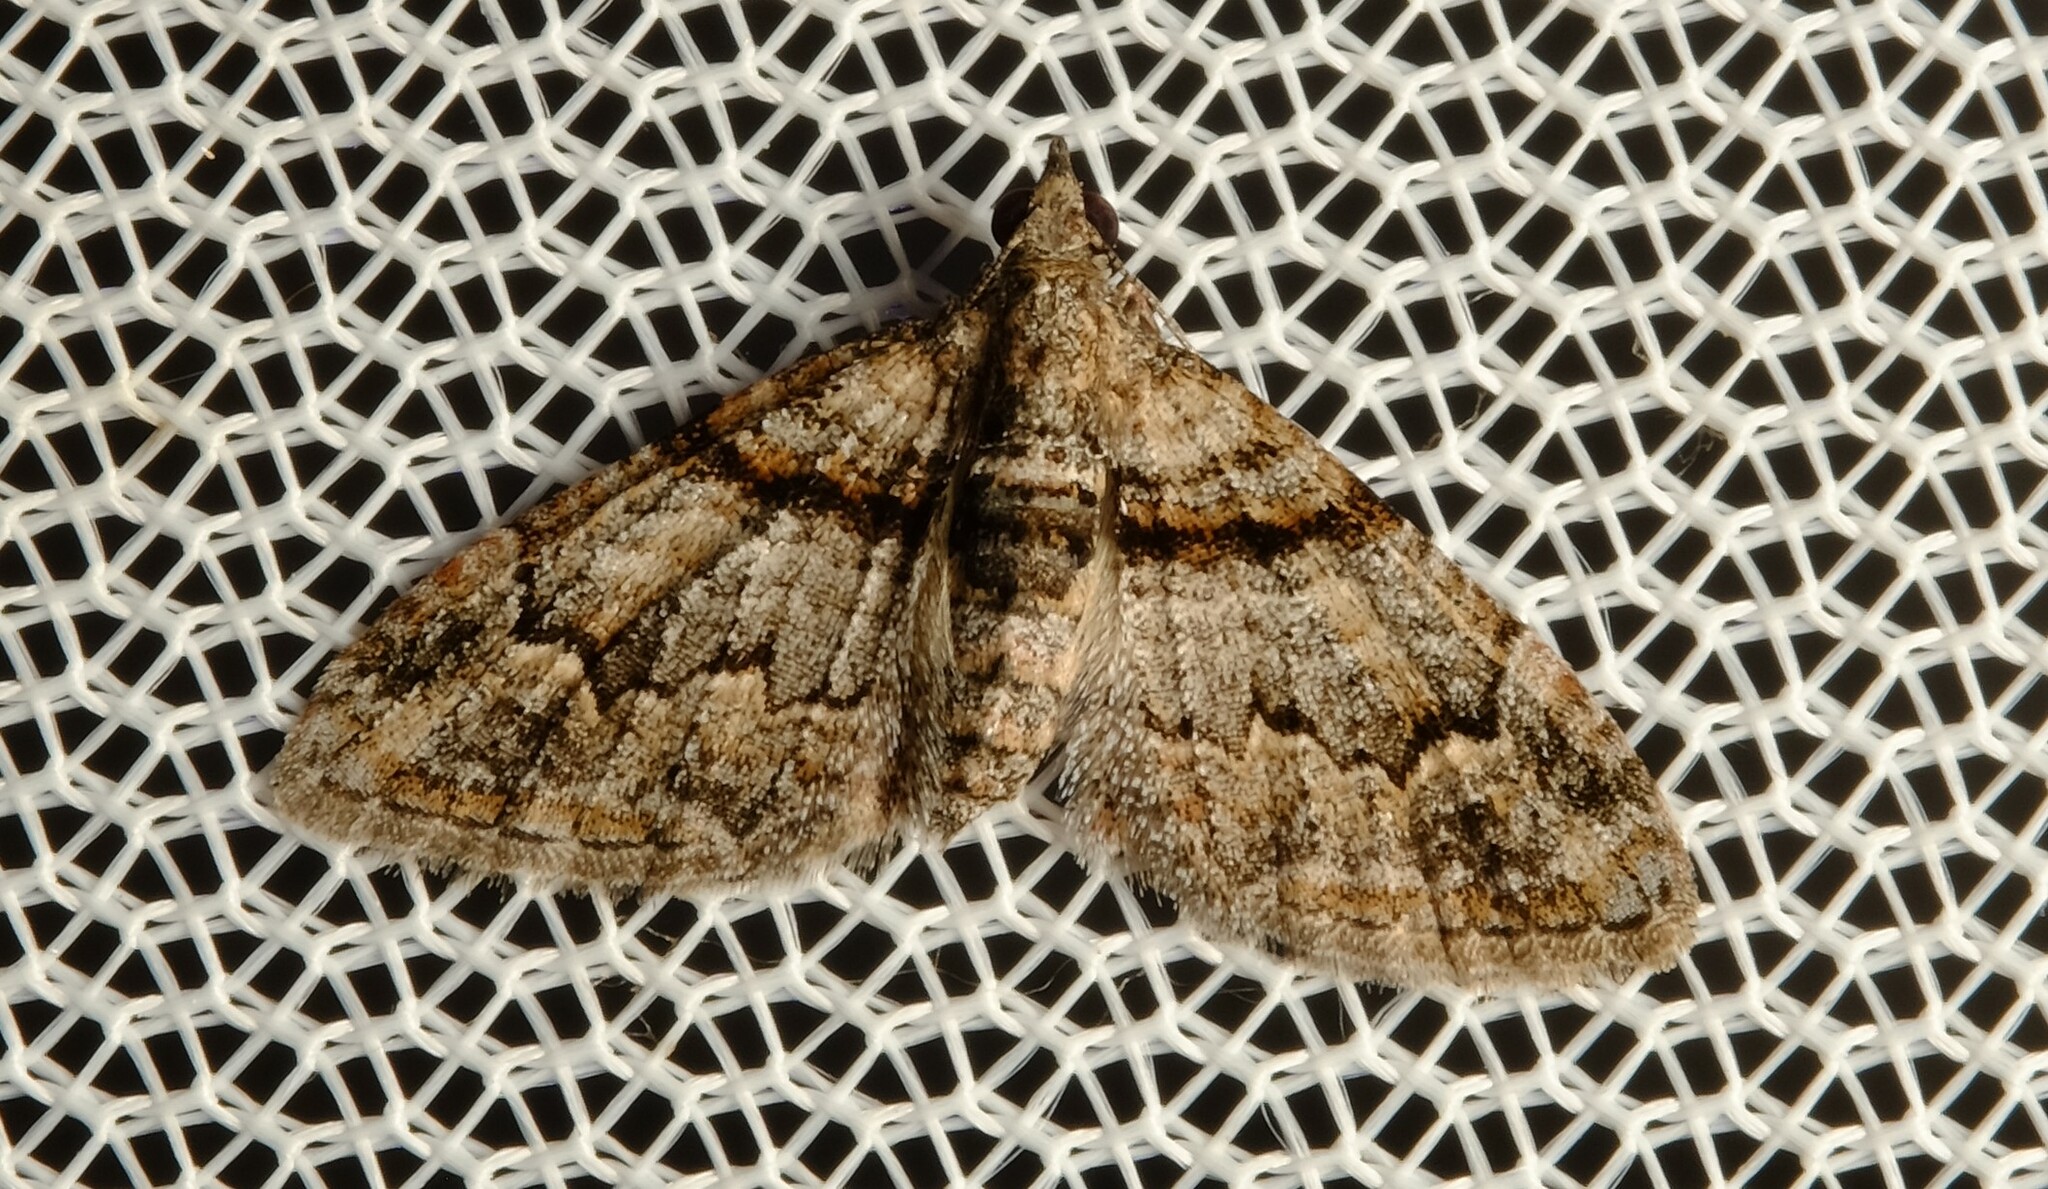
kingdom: Animalia
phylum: Arthropoda
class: Insecta
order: Lepidoptera
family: Geometridae
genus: Phrissogonus
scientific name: Phrissogonus laticostata
